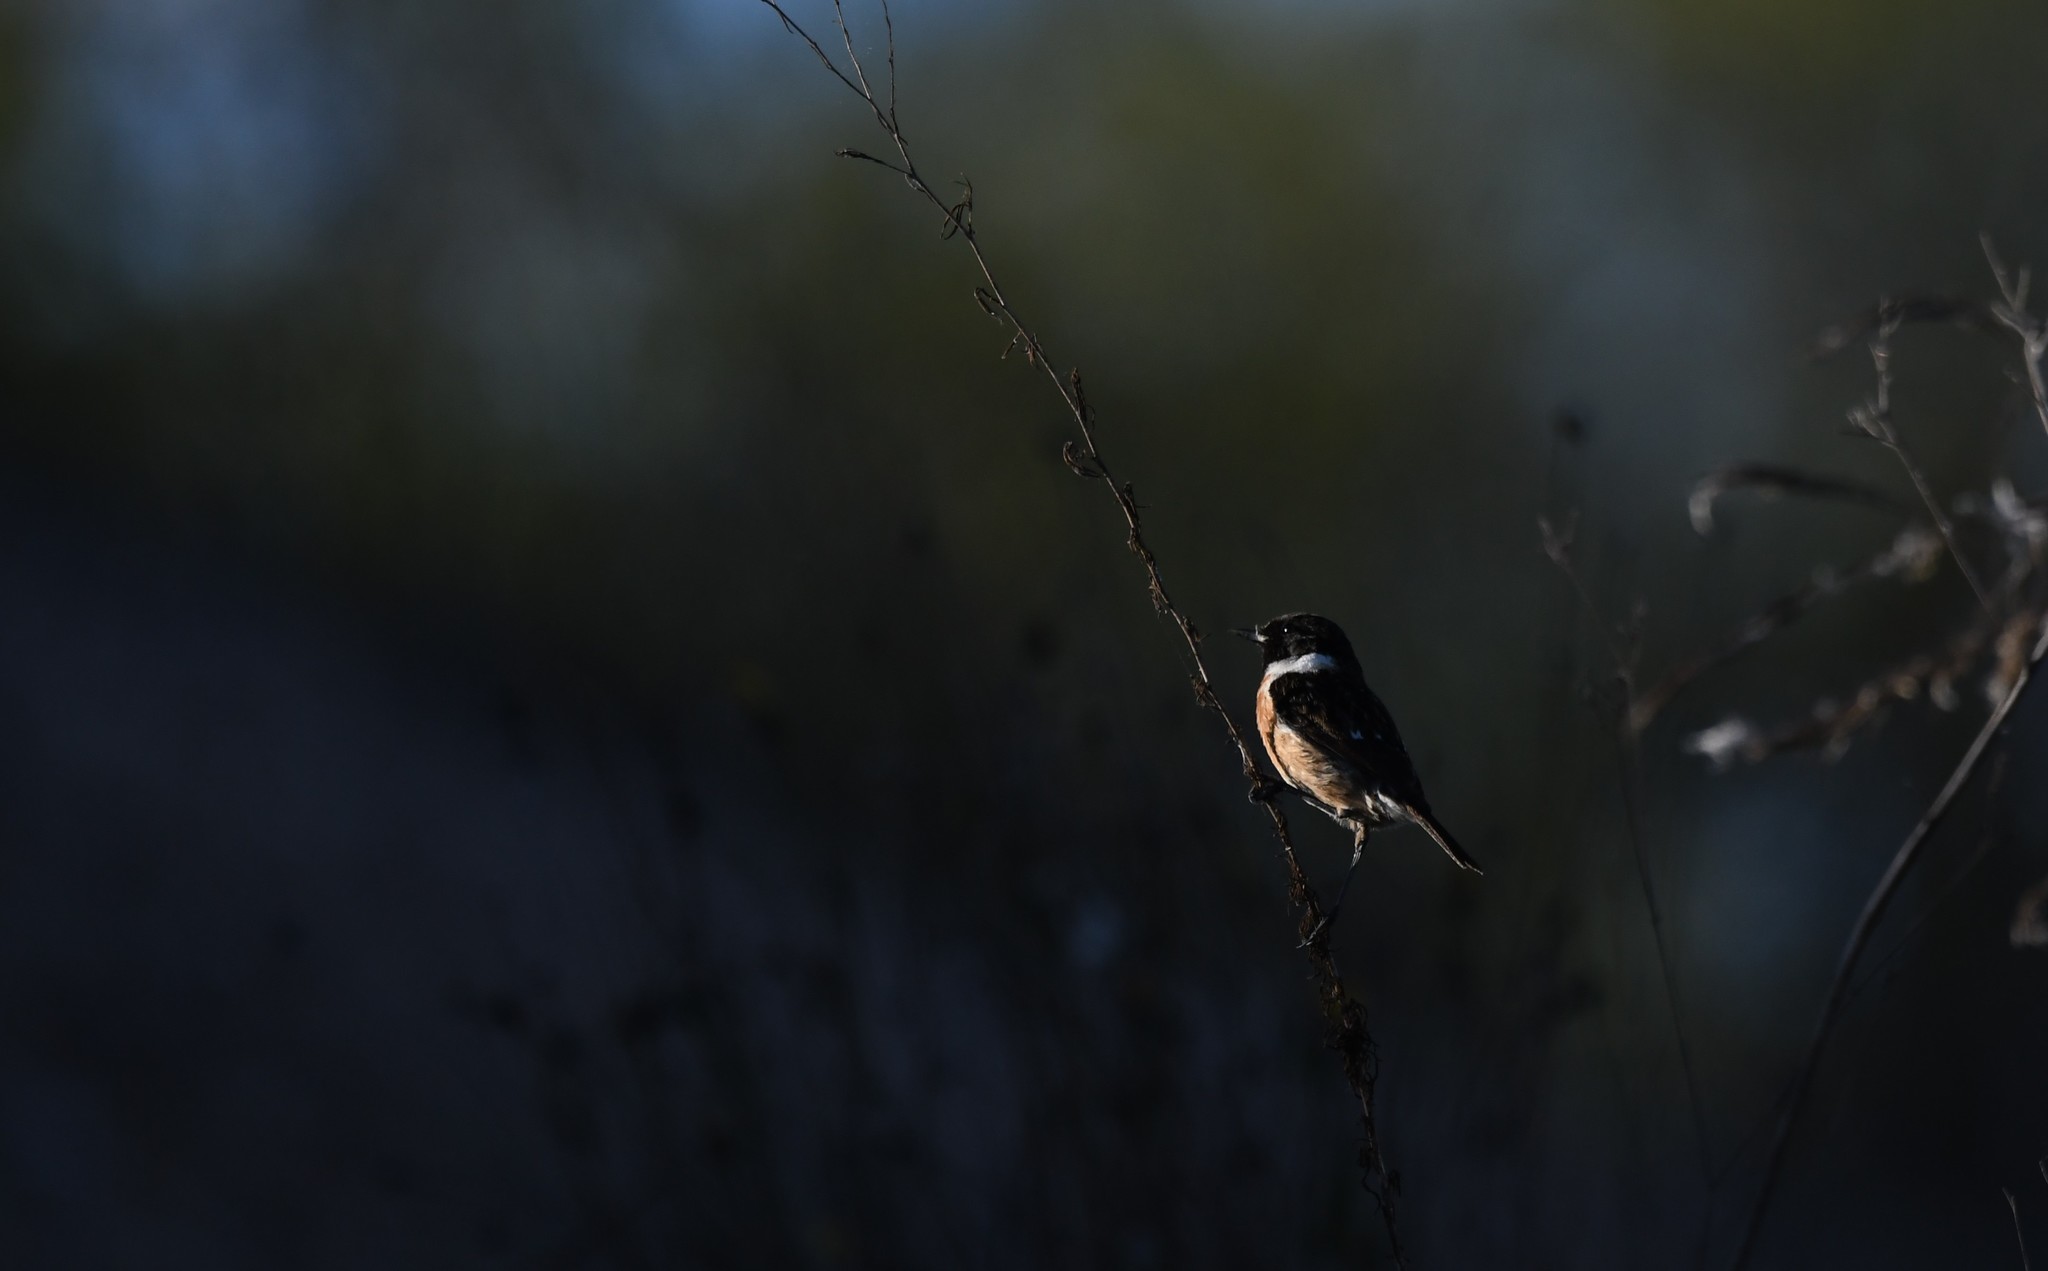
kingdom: Animalia
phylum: Chordata
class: Aves
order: Passeriformes
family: Muscicapidae
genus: Saxicola
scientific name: Saxicola rubicola
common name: European stonechat
